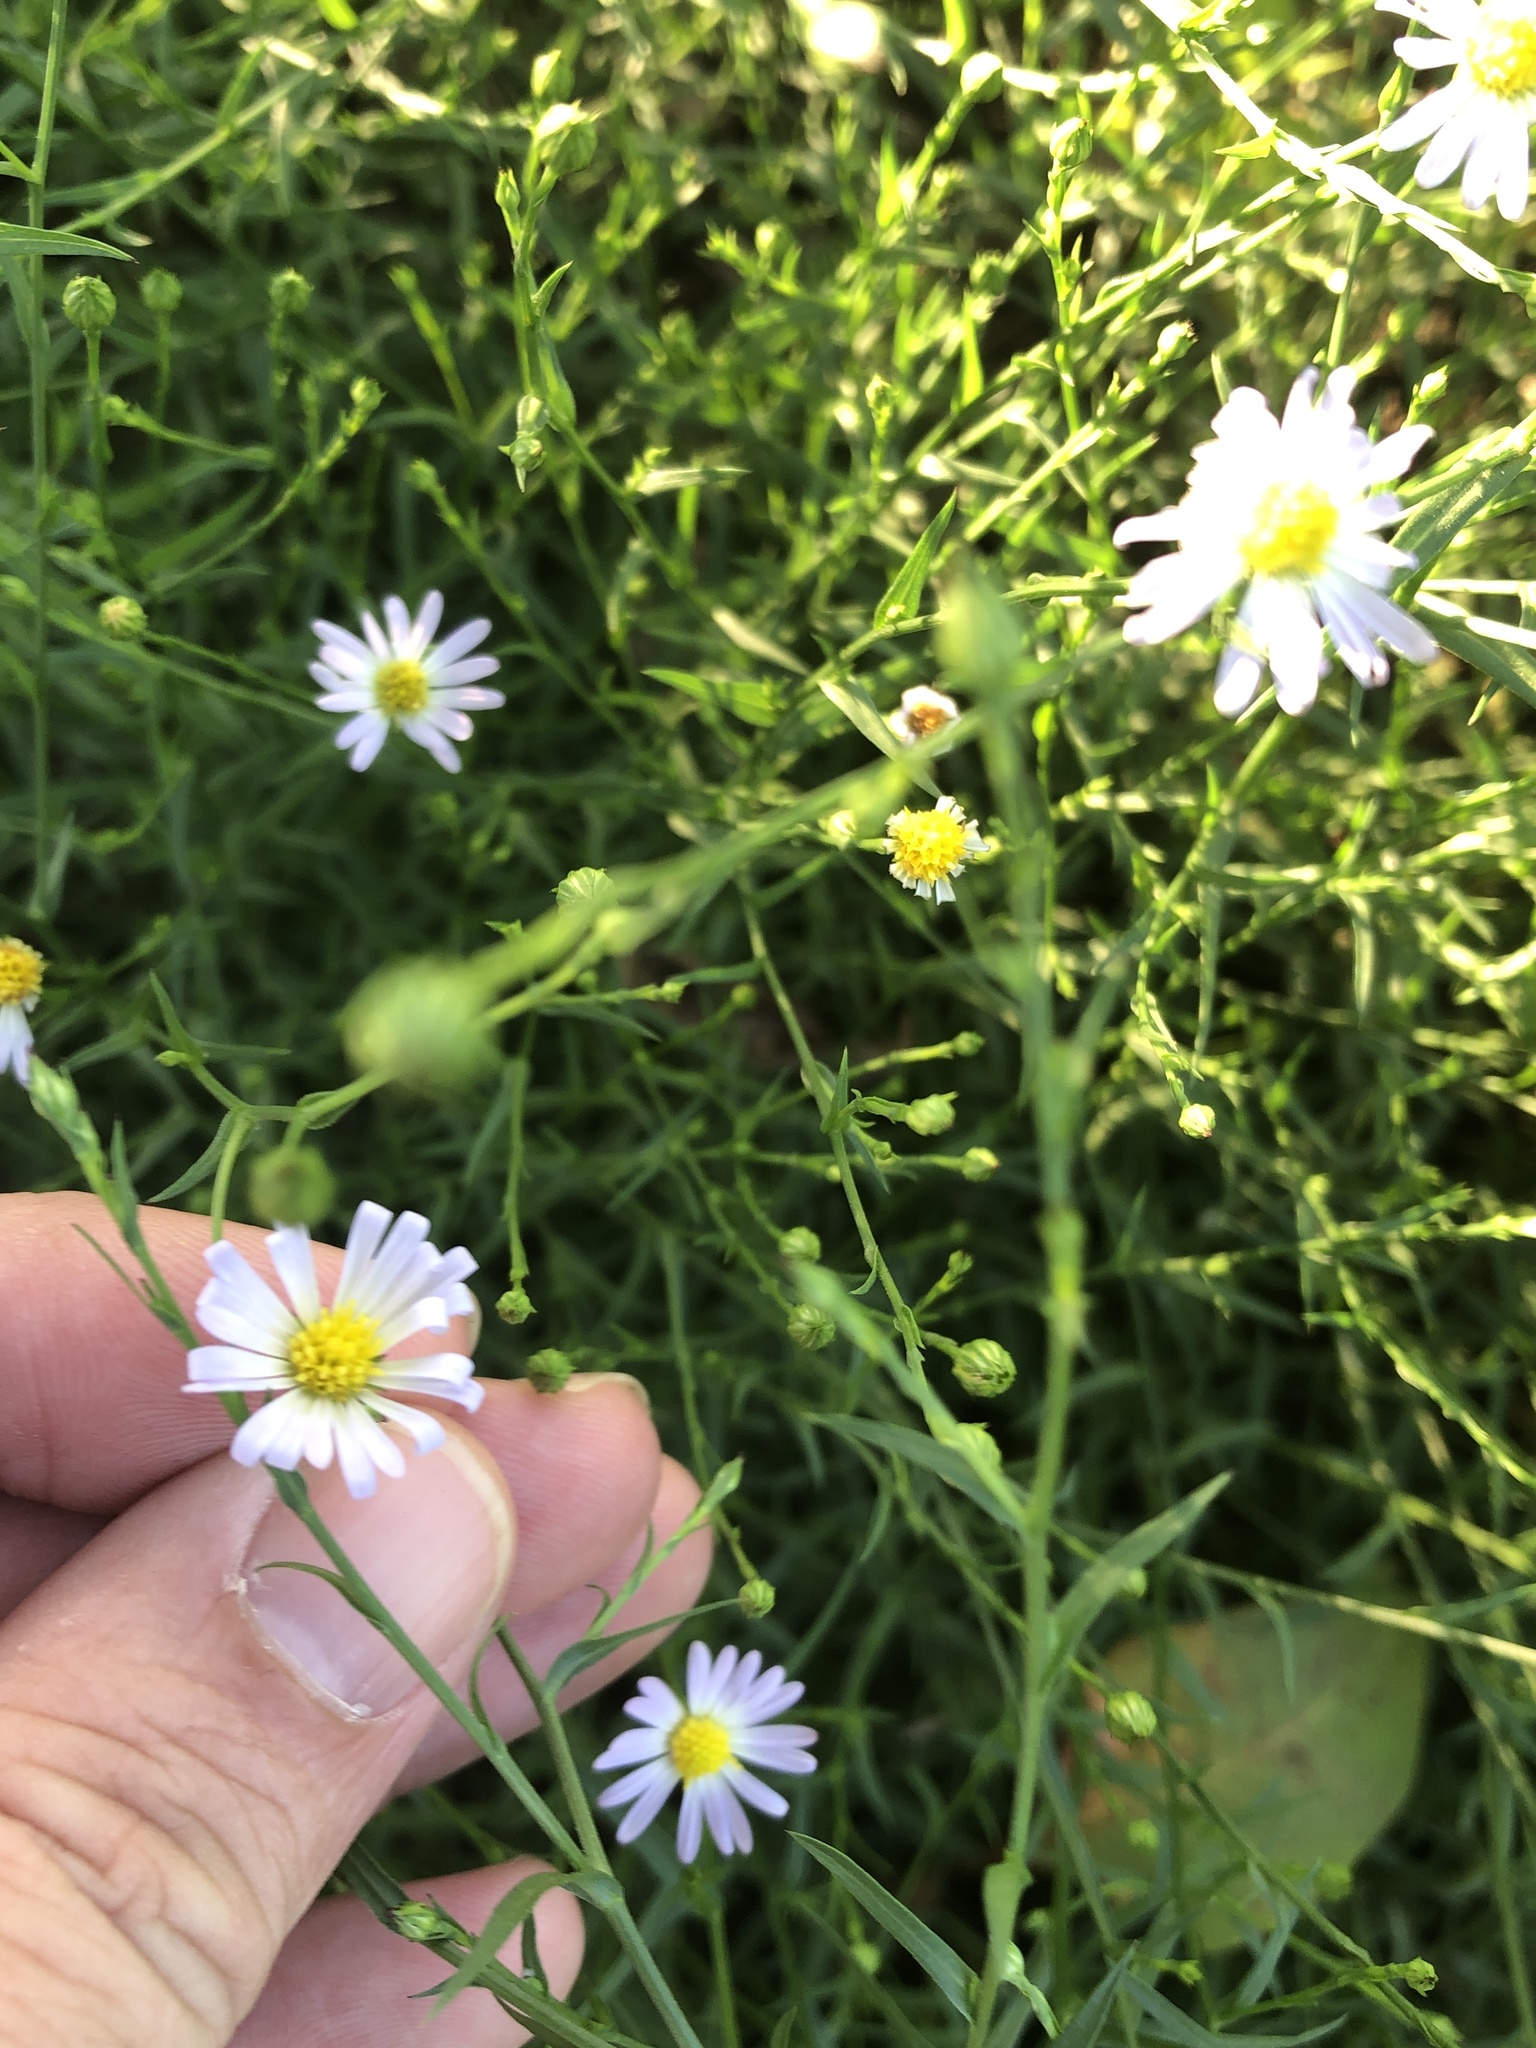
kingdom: Plantae
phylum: Tracheophyta
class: Magnoliopsida
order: Asterales
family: Asteraceae
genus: Symphyotrichum
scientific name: Symphyotrichum divaricatum
